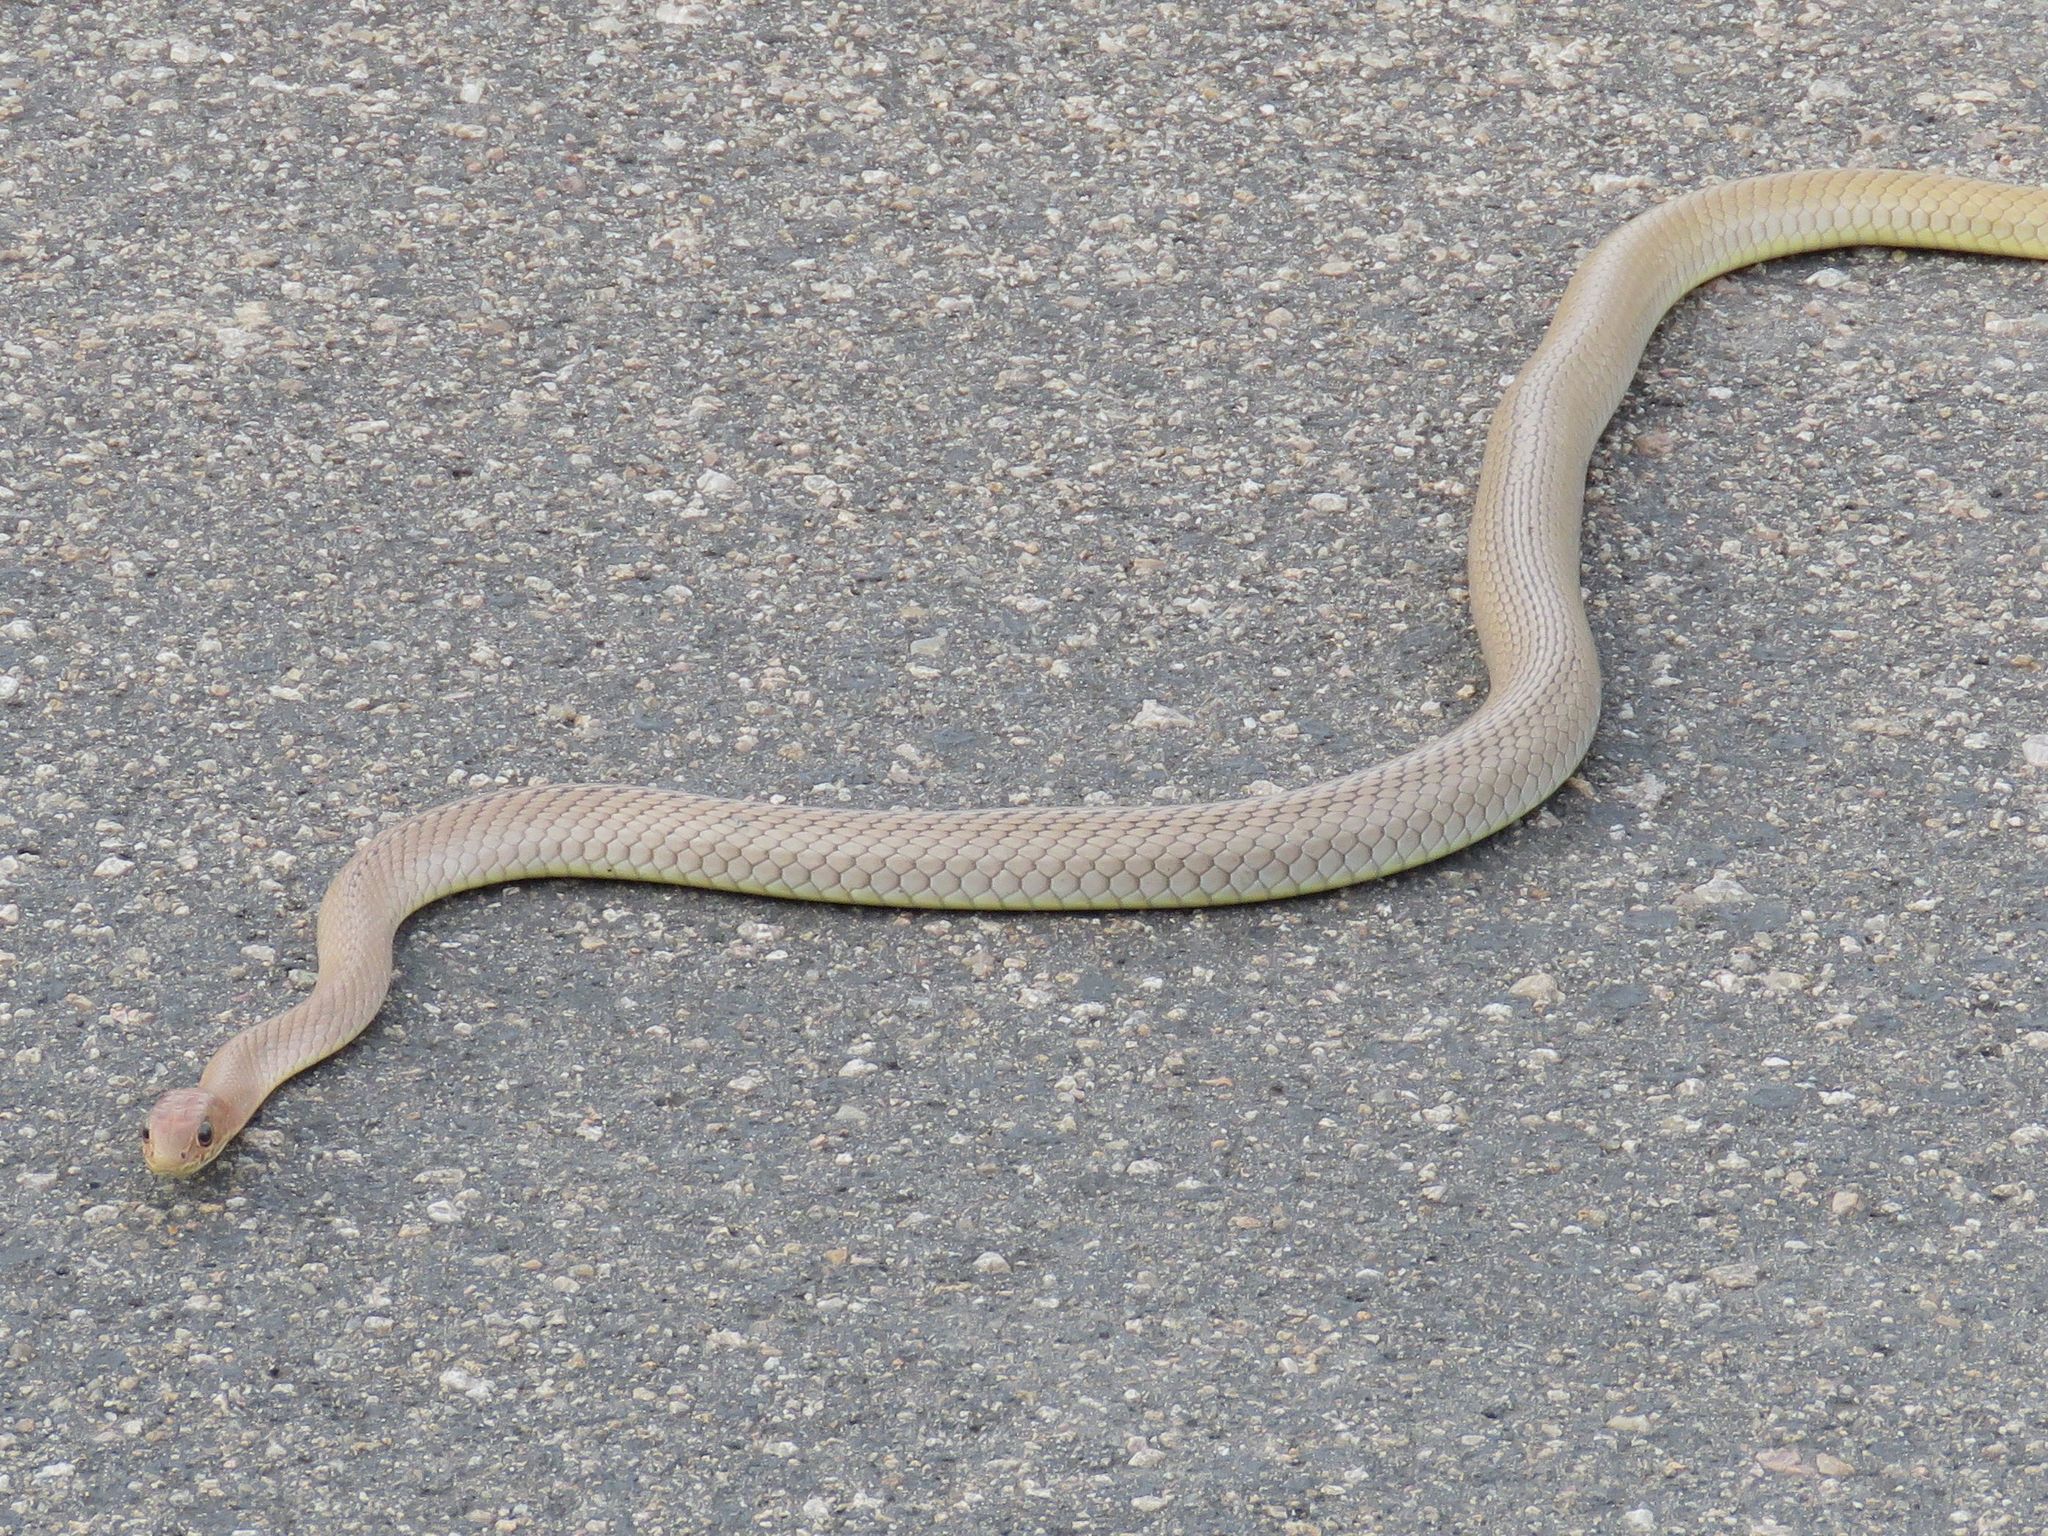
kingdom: Animalia
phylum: Chordata
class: Squamata
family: Psammophiidae
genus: Psammophis
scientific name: Psammophis mossambicus
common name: Olive grass snake
